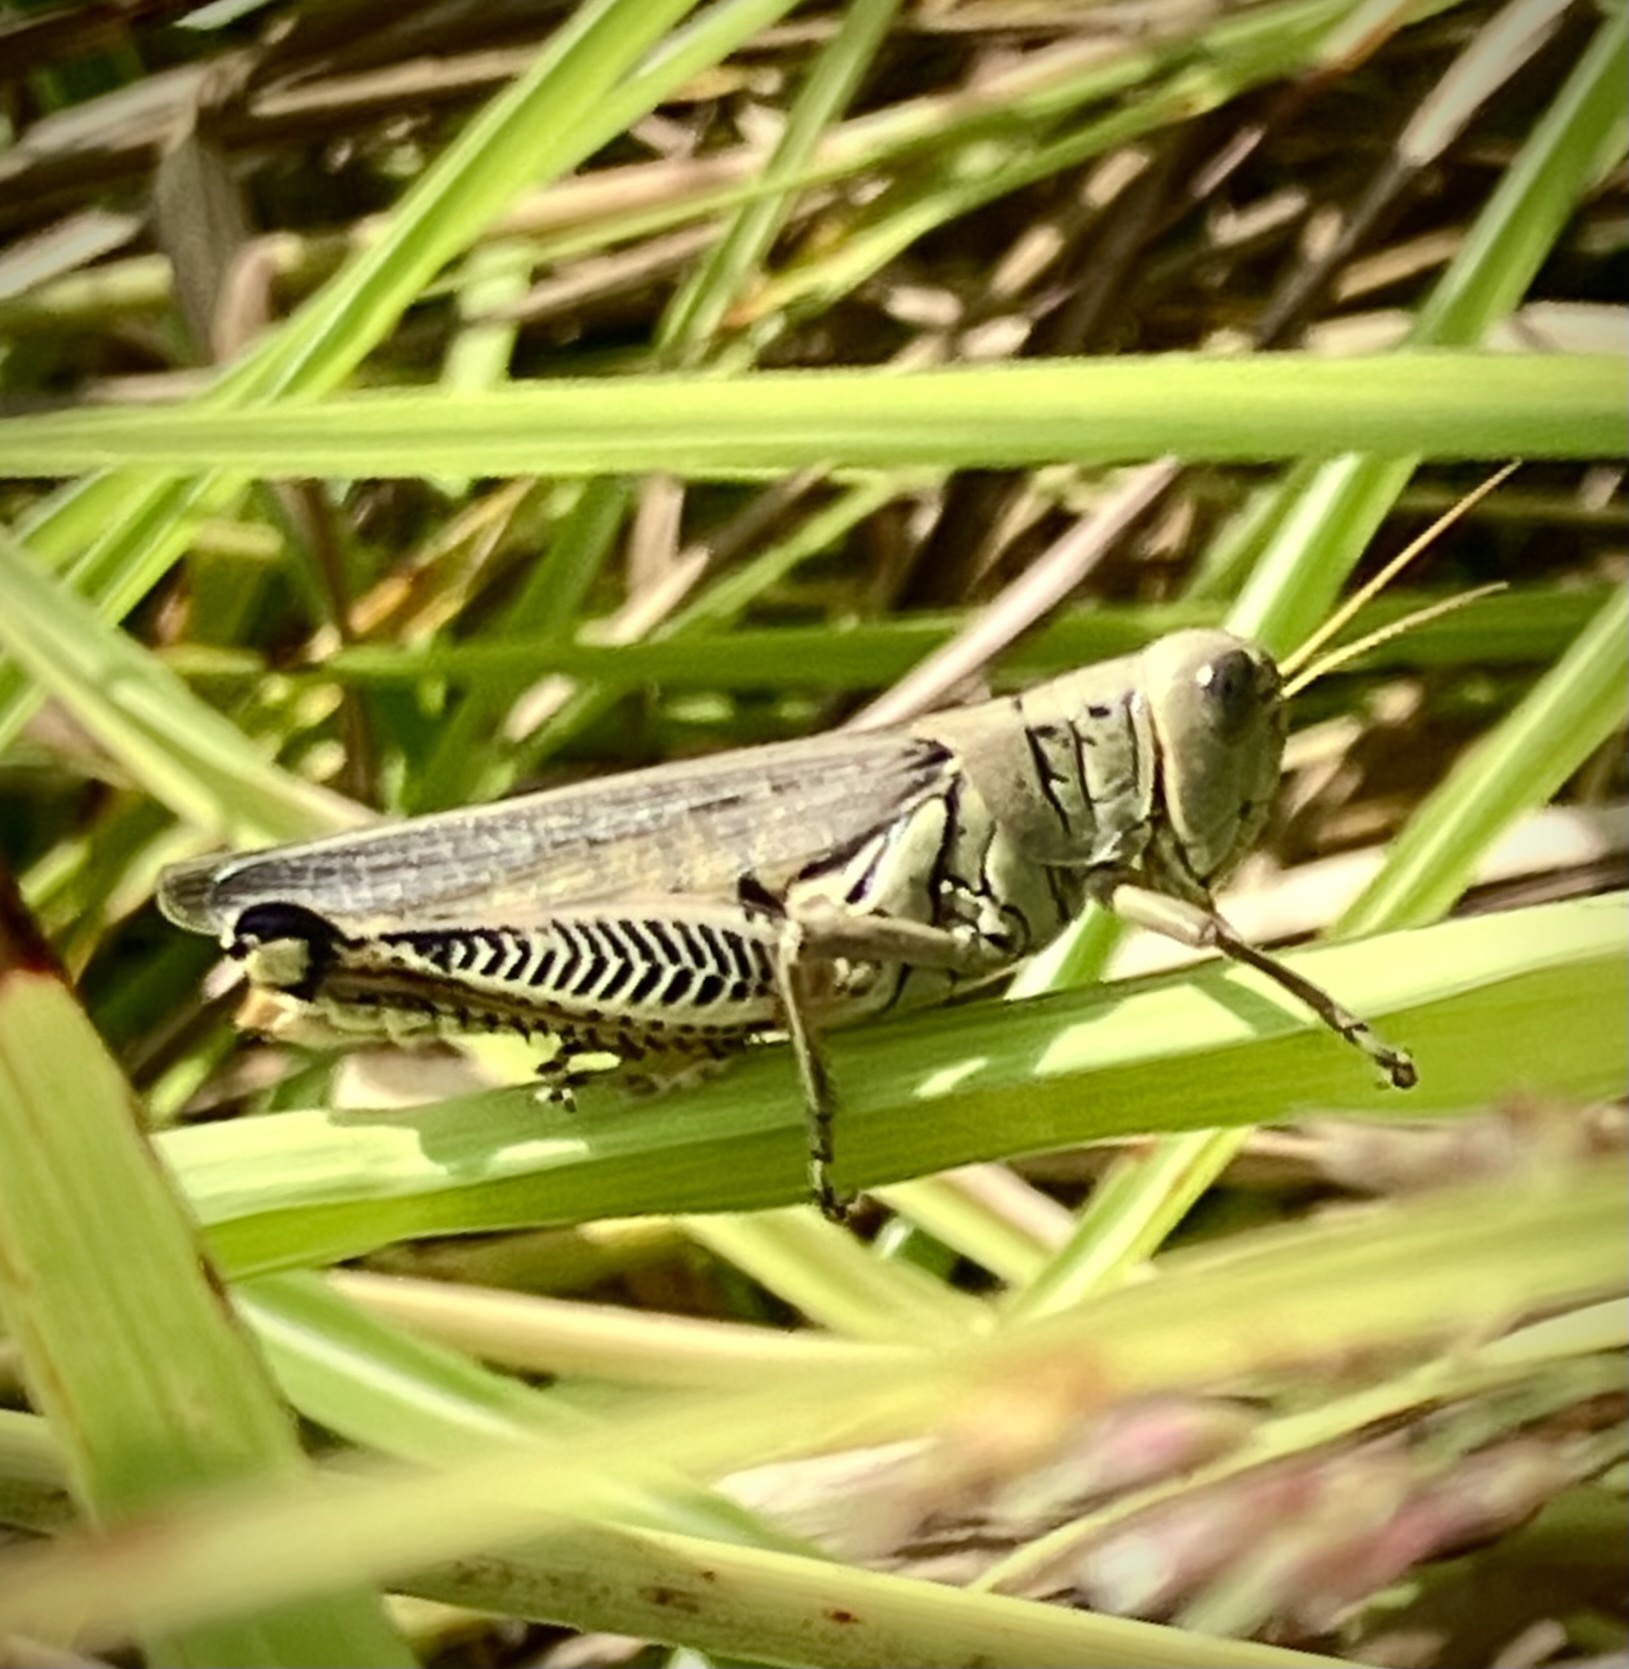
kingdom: Animalia
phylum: Arthropoda
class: Insecta
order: Orthoptera
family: Acrididae
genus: Melanoplus
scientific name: Melanoplus differentialis
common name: Differential grasshopper
